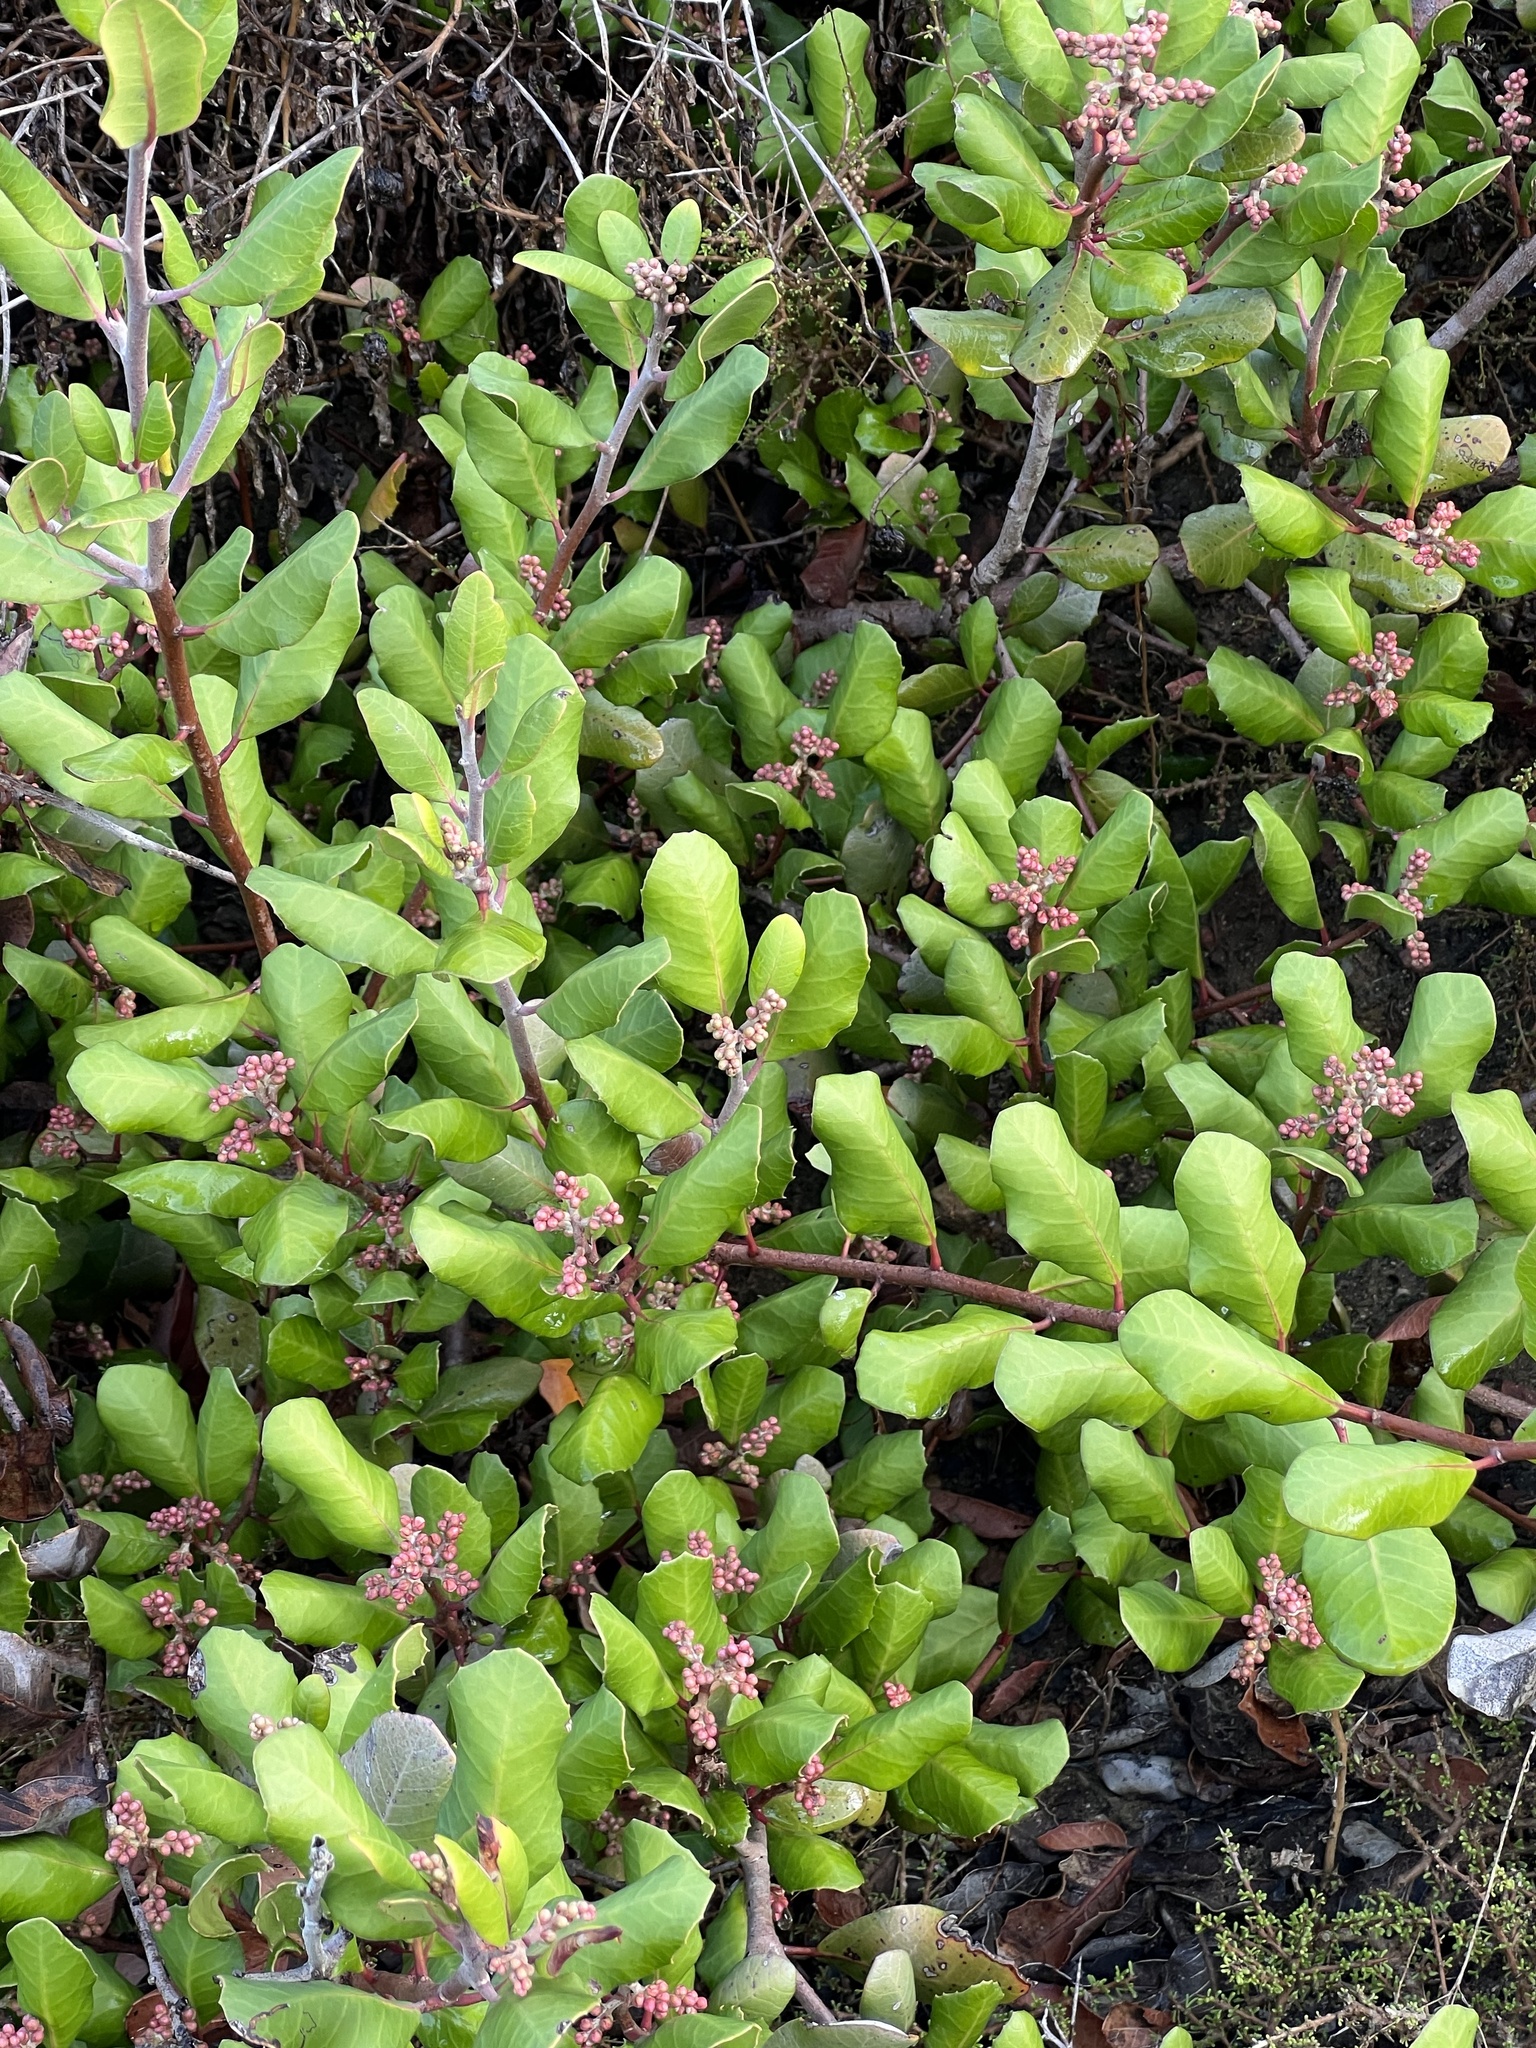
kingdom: Plantae
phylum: Tracheophyta
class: Magnoliopsida
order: Sapindales
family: Anacardiaceae
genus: Rhus
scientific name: Rhus integrifolia
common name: Lemonade sumac
